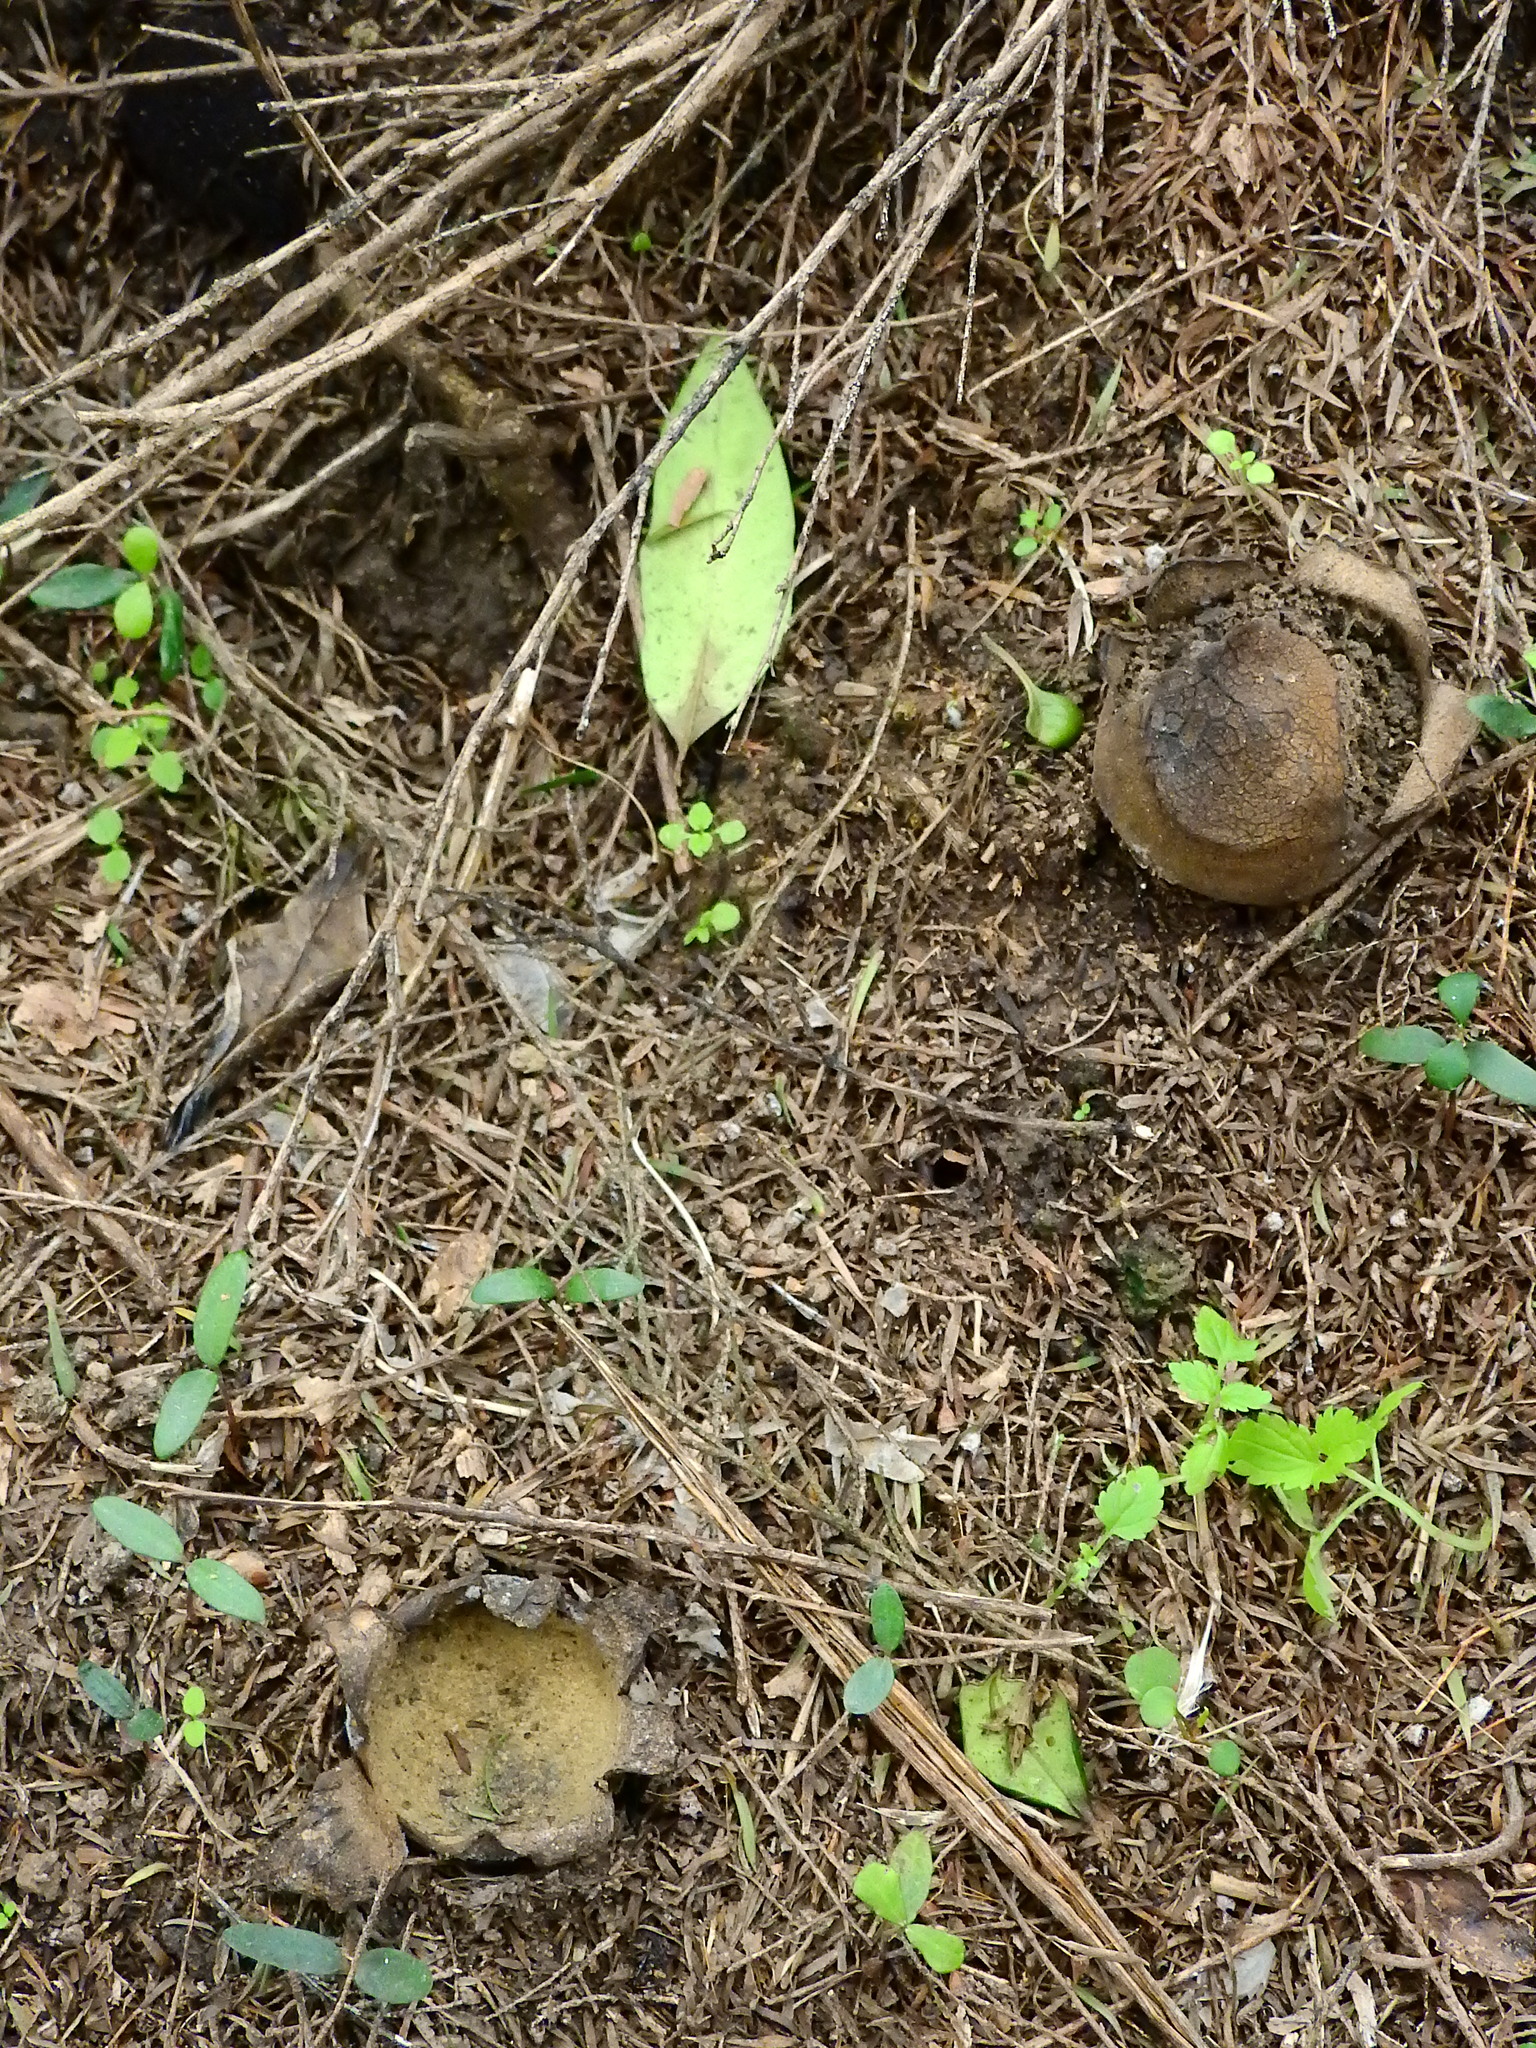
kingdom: Fungi
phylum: Basidiomycota
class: Agaricomycetes
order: Boletales
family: Sclerodermataceae
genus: Scleroderma
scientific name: Scleroderma
